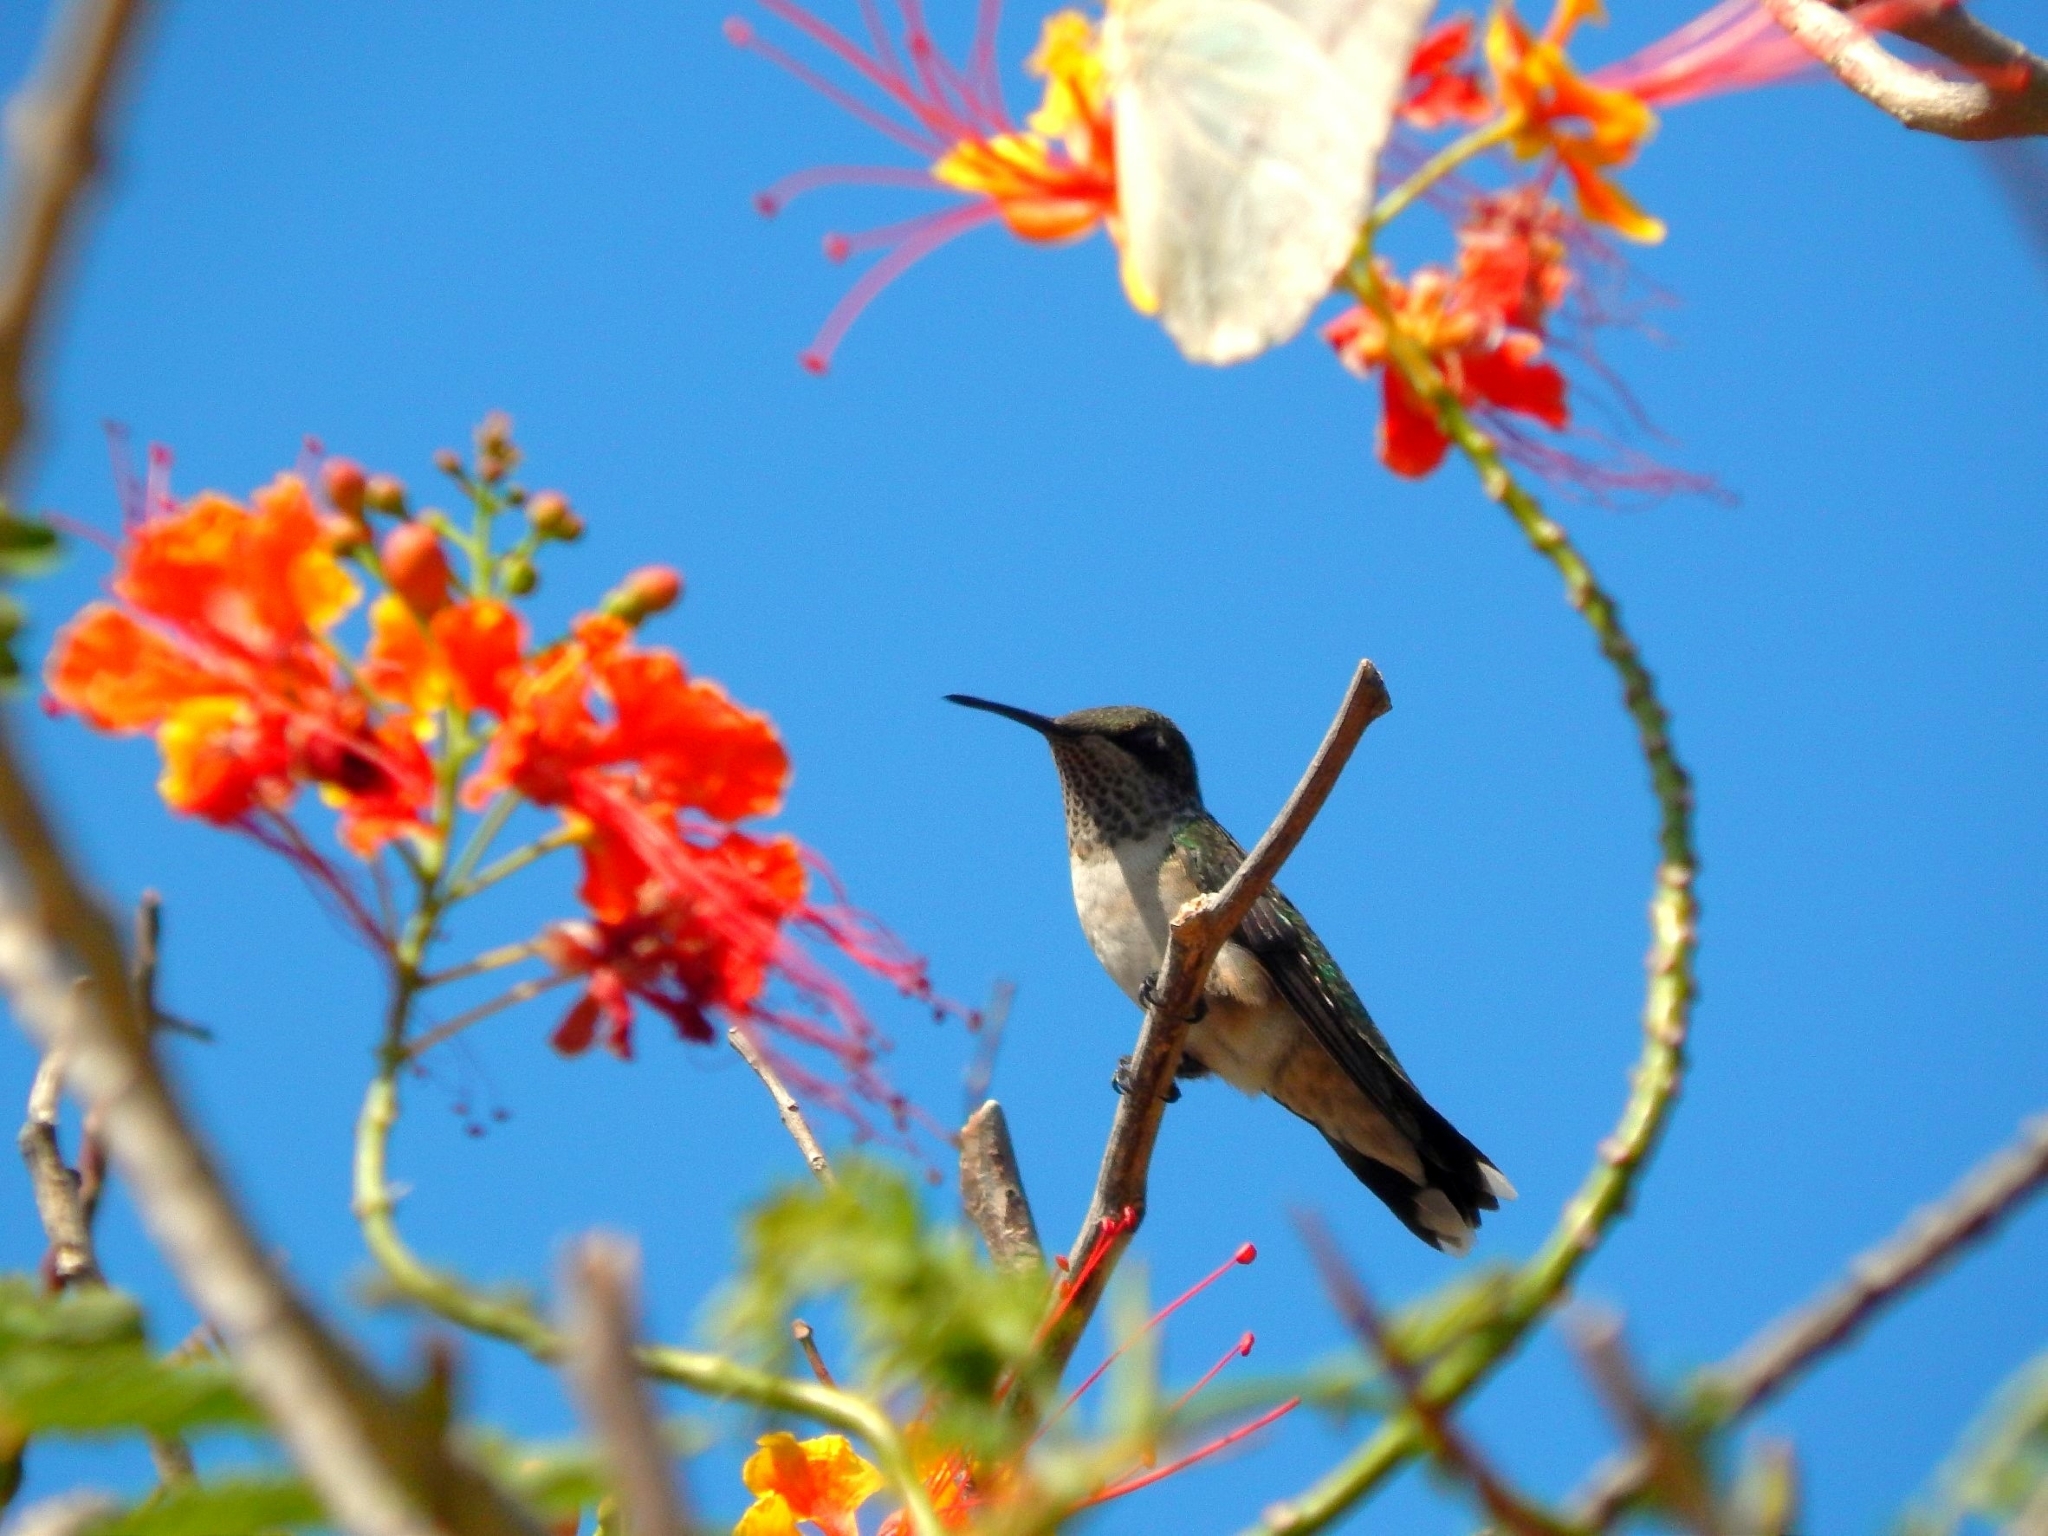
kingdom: Animalia
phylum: Chordata
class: Aves
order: Apodiformes
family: Trochilidae
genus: Archilochus
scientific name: Archilochus colubris
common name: Ruby-throated hummingbird
